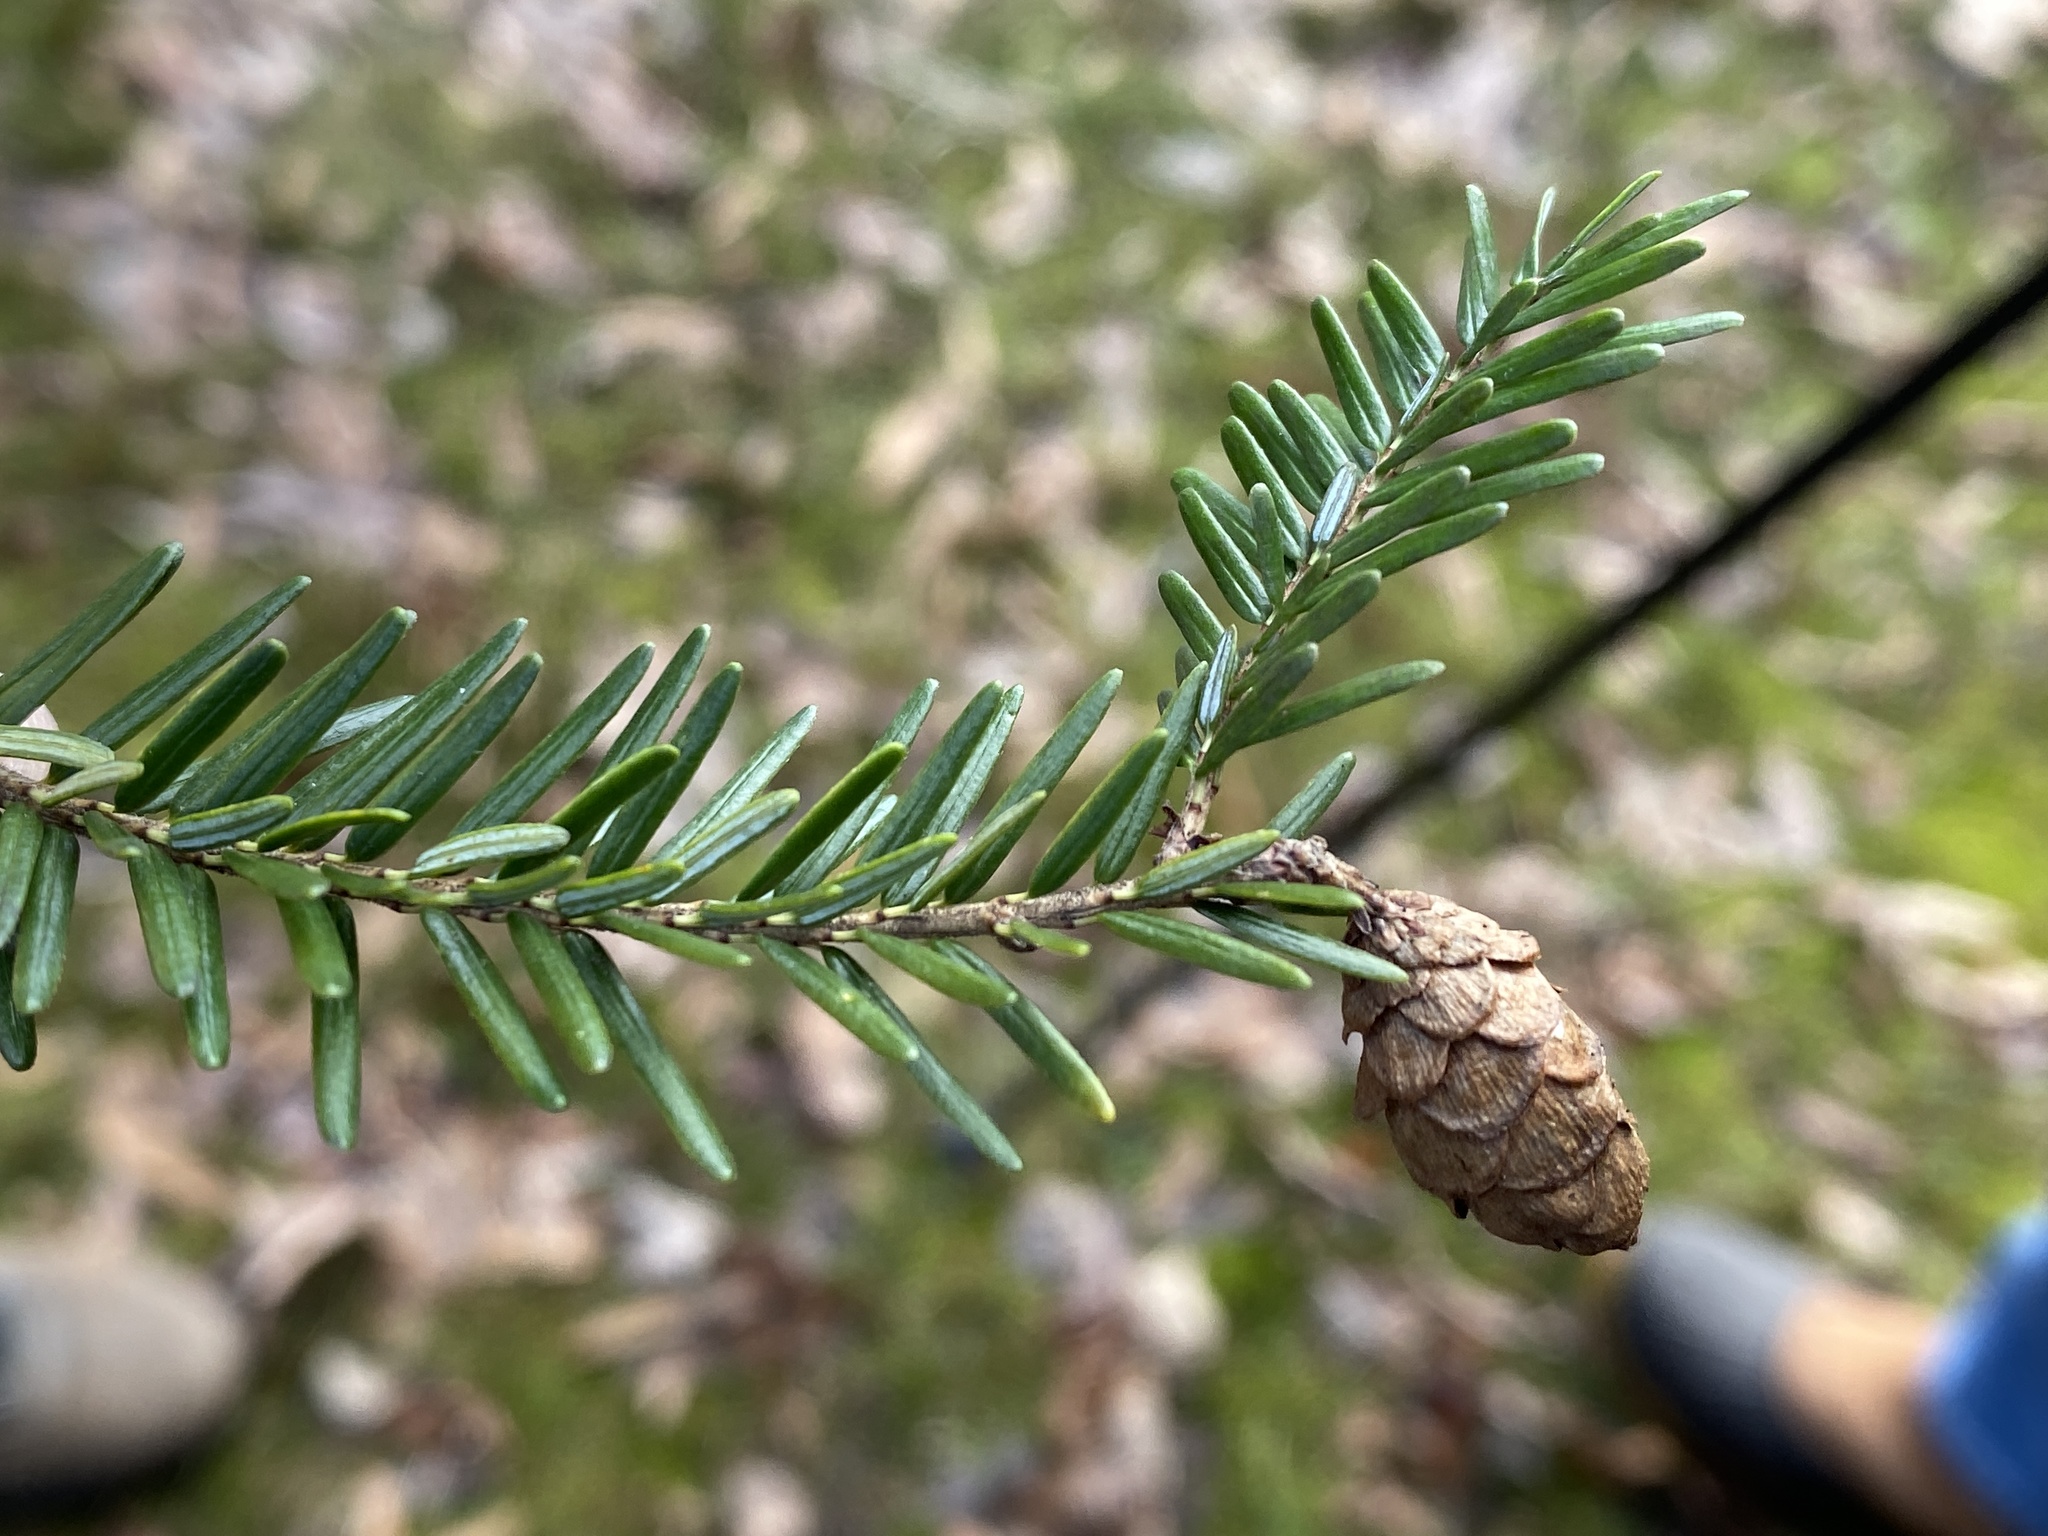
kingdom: Plantae
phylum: Tracheophyta
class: Pinopsida
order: Pinales
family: Pinaceae
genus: Tsuga
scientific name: Tsuga canadensis
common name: Eastern hemlock
